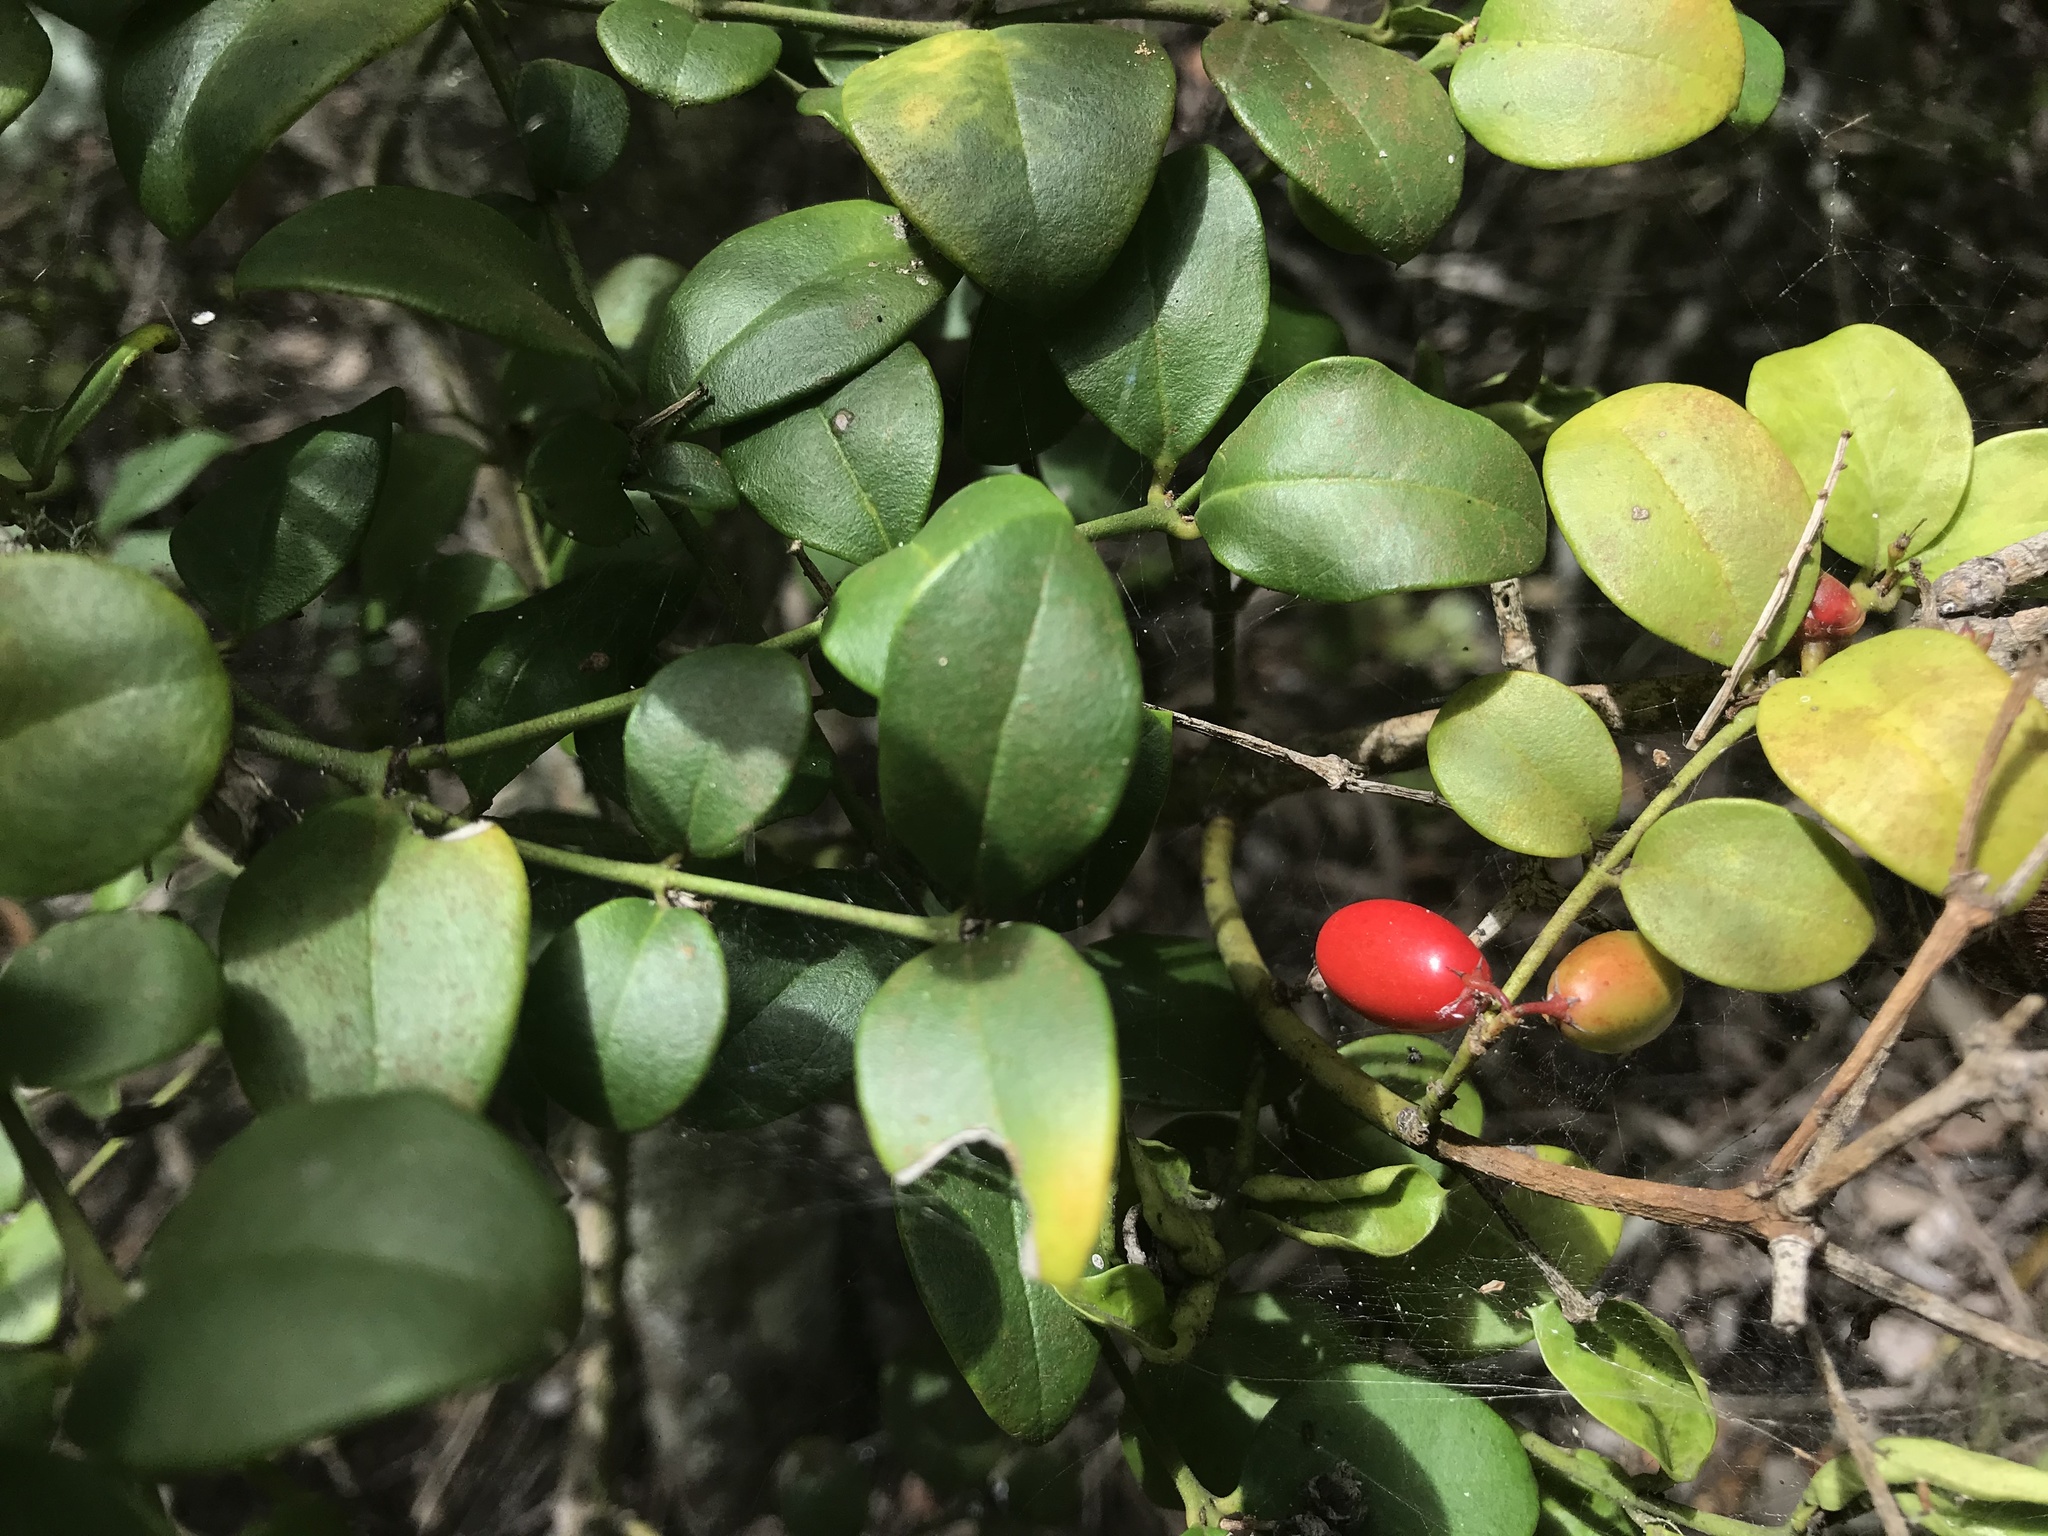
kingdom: Plantae
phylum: Tracheophyta
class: Magnoliopsida
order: Gentianales
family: Apocynaceae
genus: Carissa
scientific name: Carissa bispinosa
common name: Forest num-num
